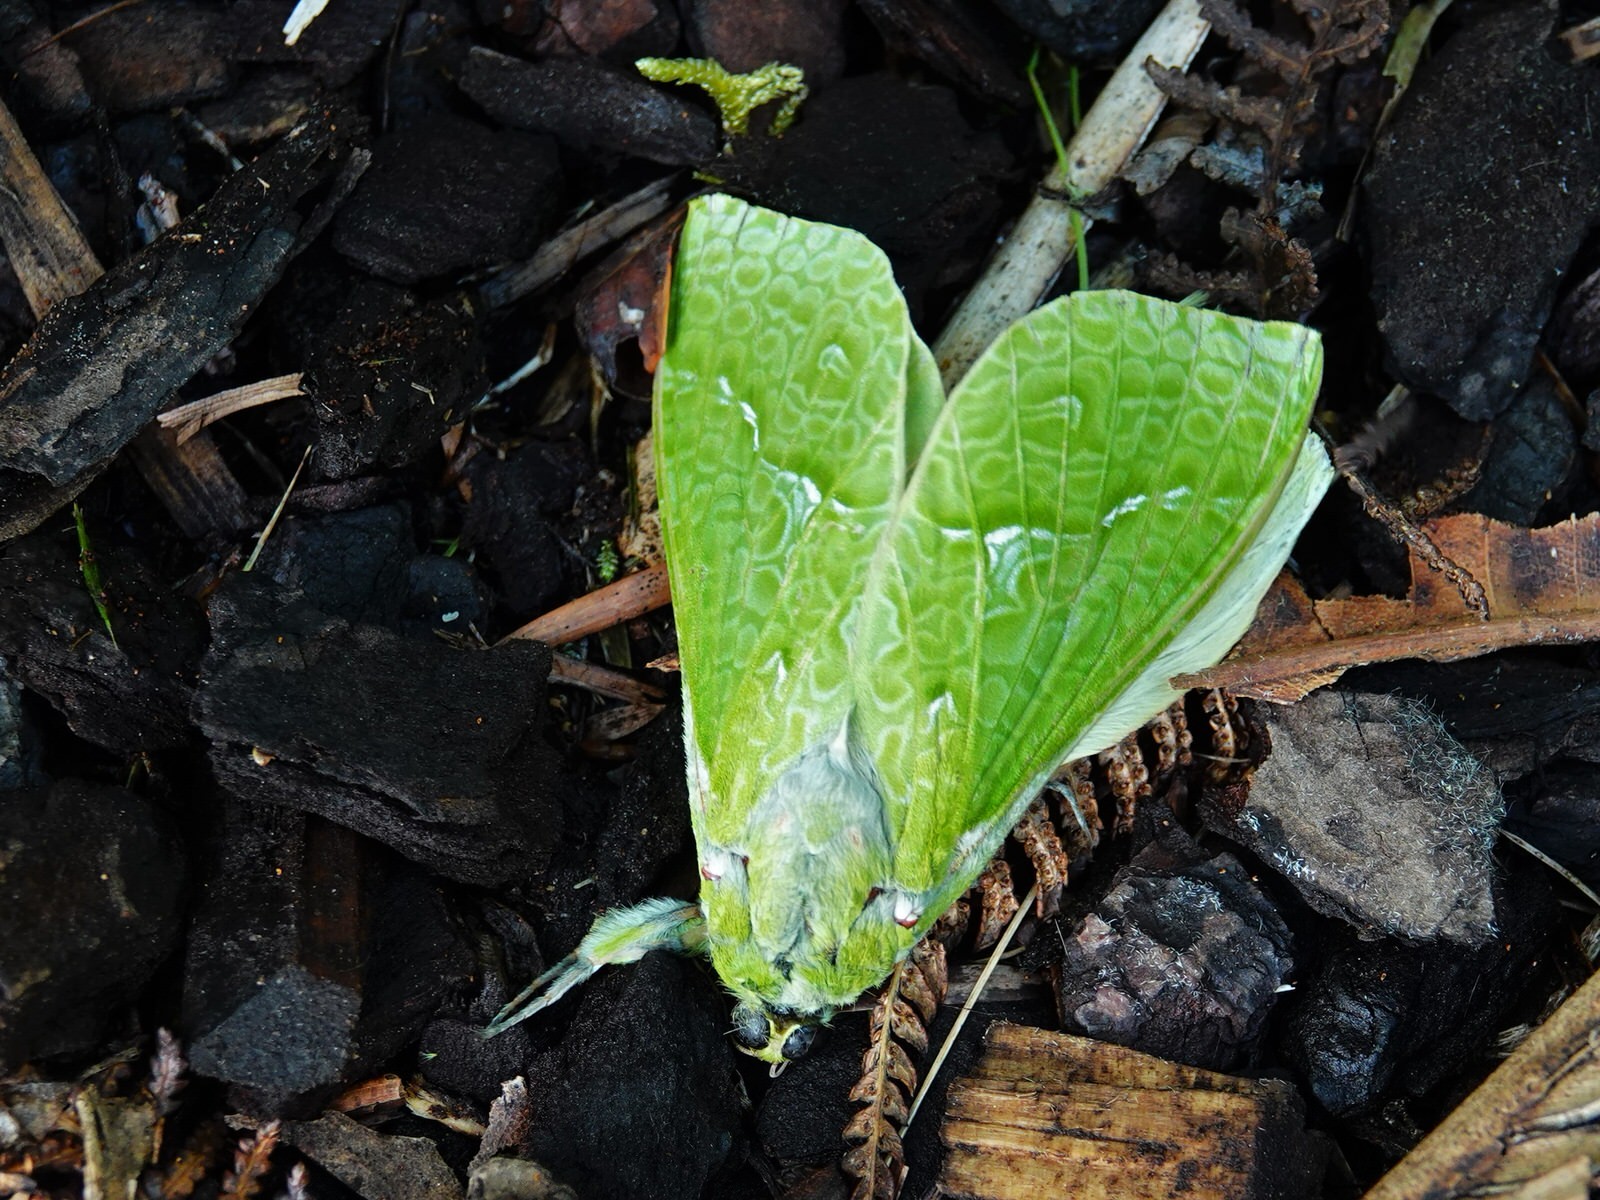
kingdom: Animalia
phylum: Arthropoda
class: Insecta
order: Lepidoptera
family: Hepialidae
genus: Aenetus
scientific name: Aenetus virescens
